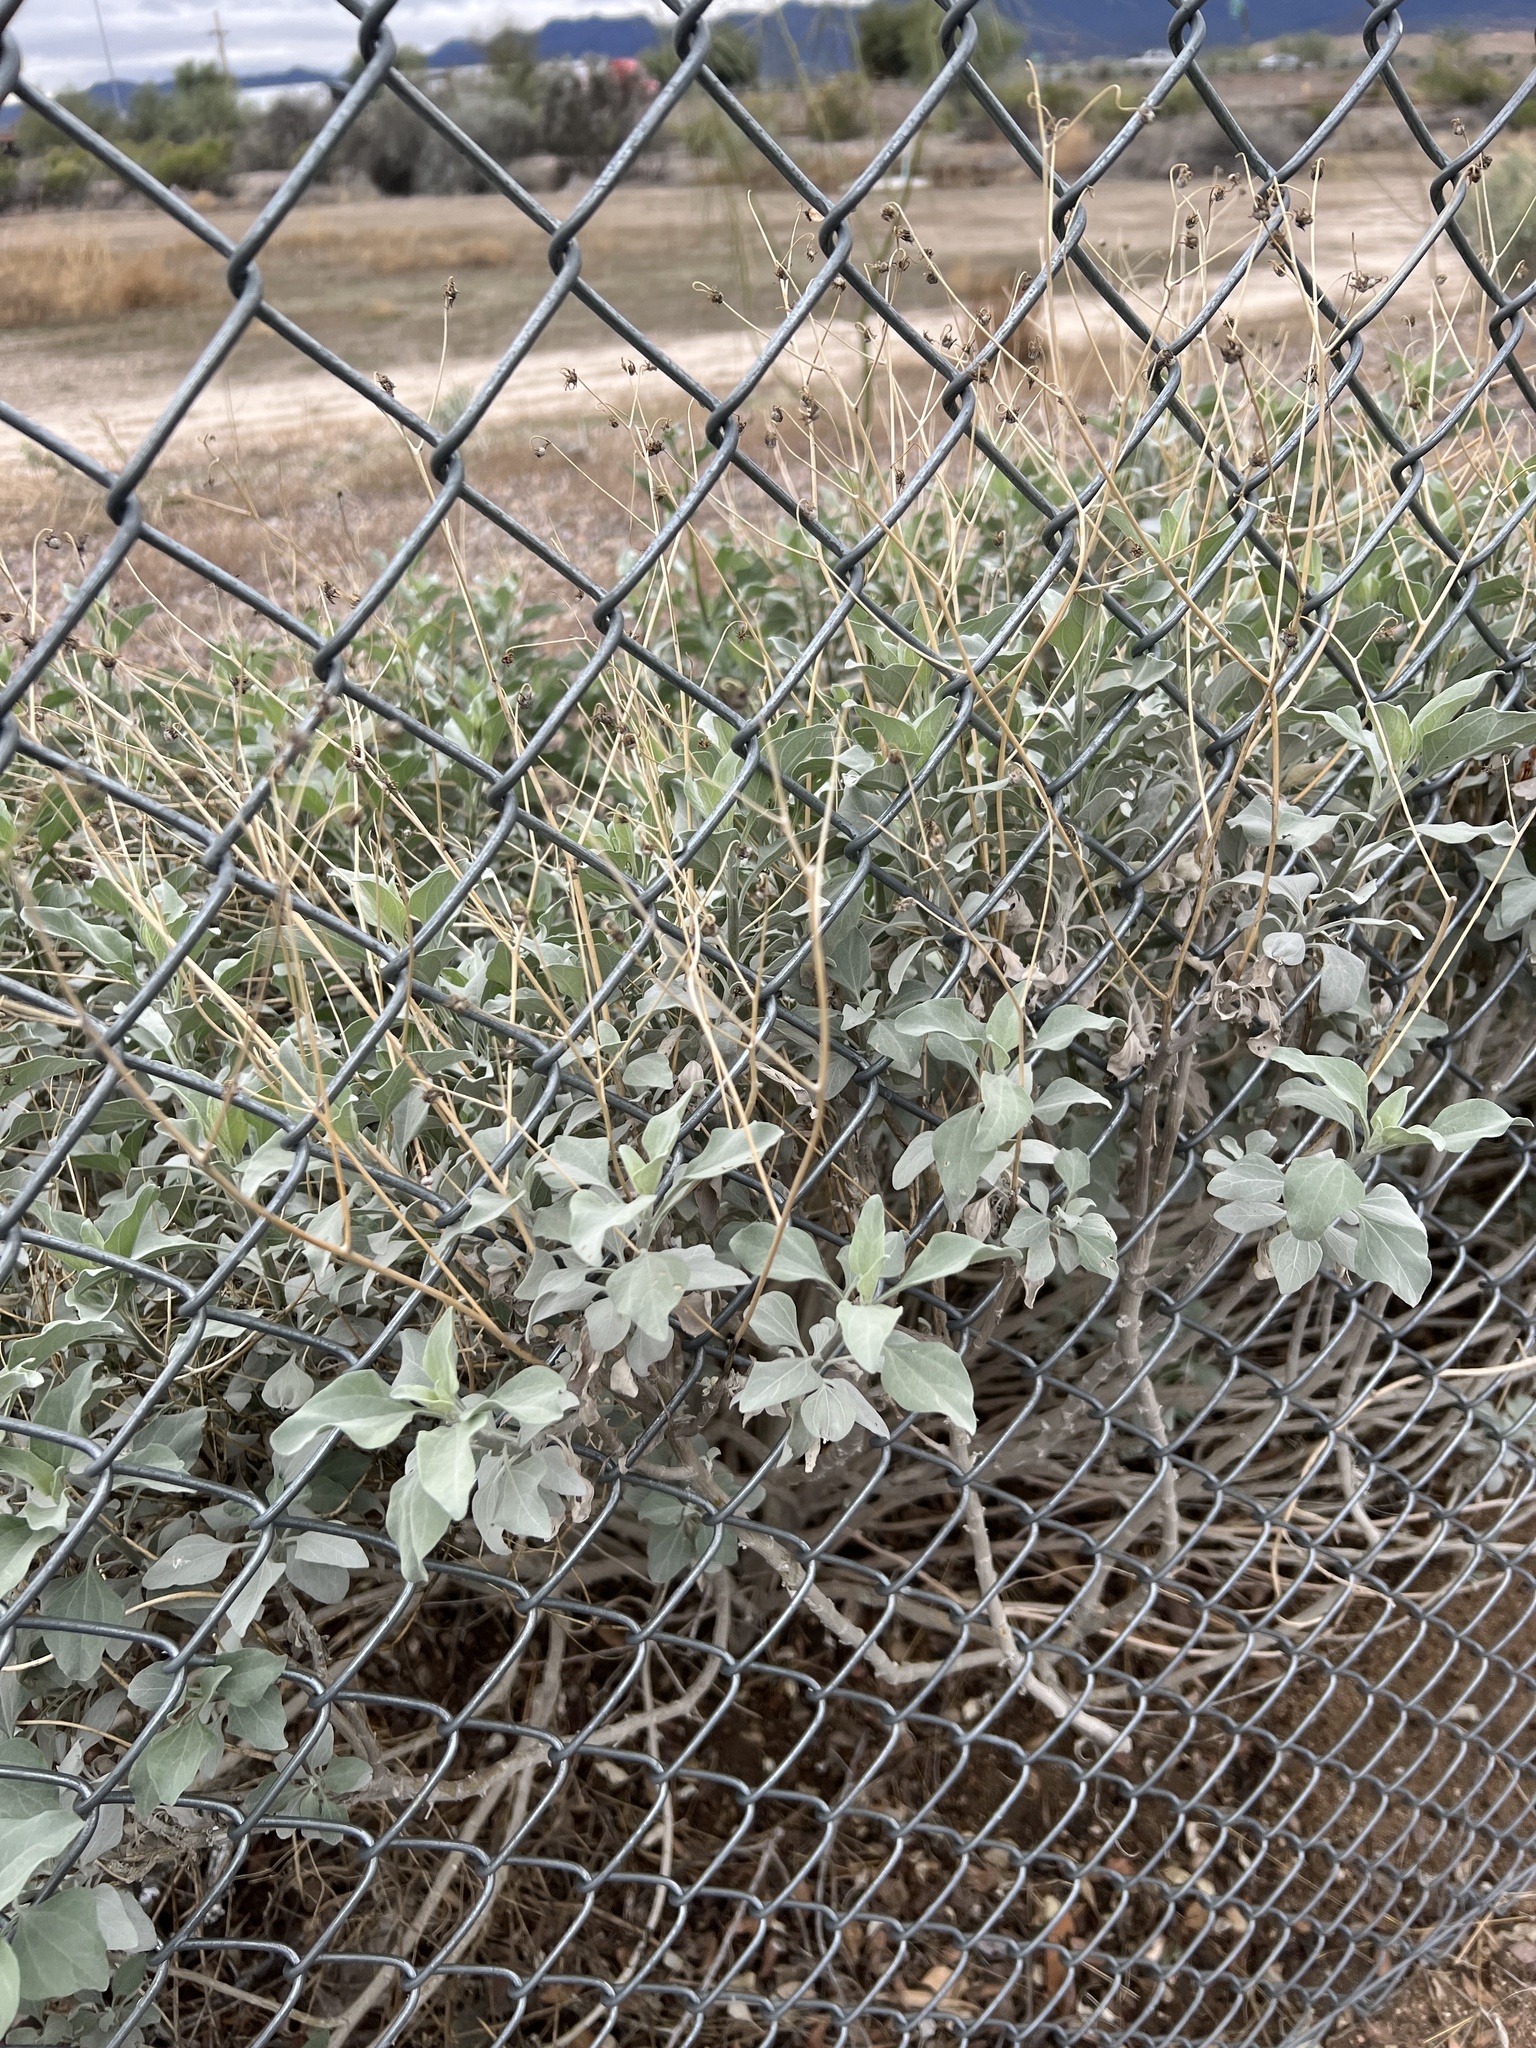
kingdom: Plantae
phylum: Tracheophyta
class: Magnoliopsida
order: Asterales
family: Asteraceae
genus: Encelia
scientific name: Encelia farinosa
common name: Brittlebush
